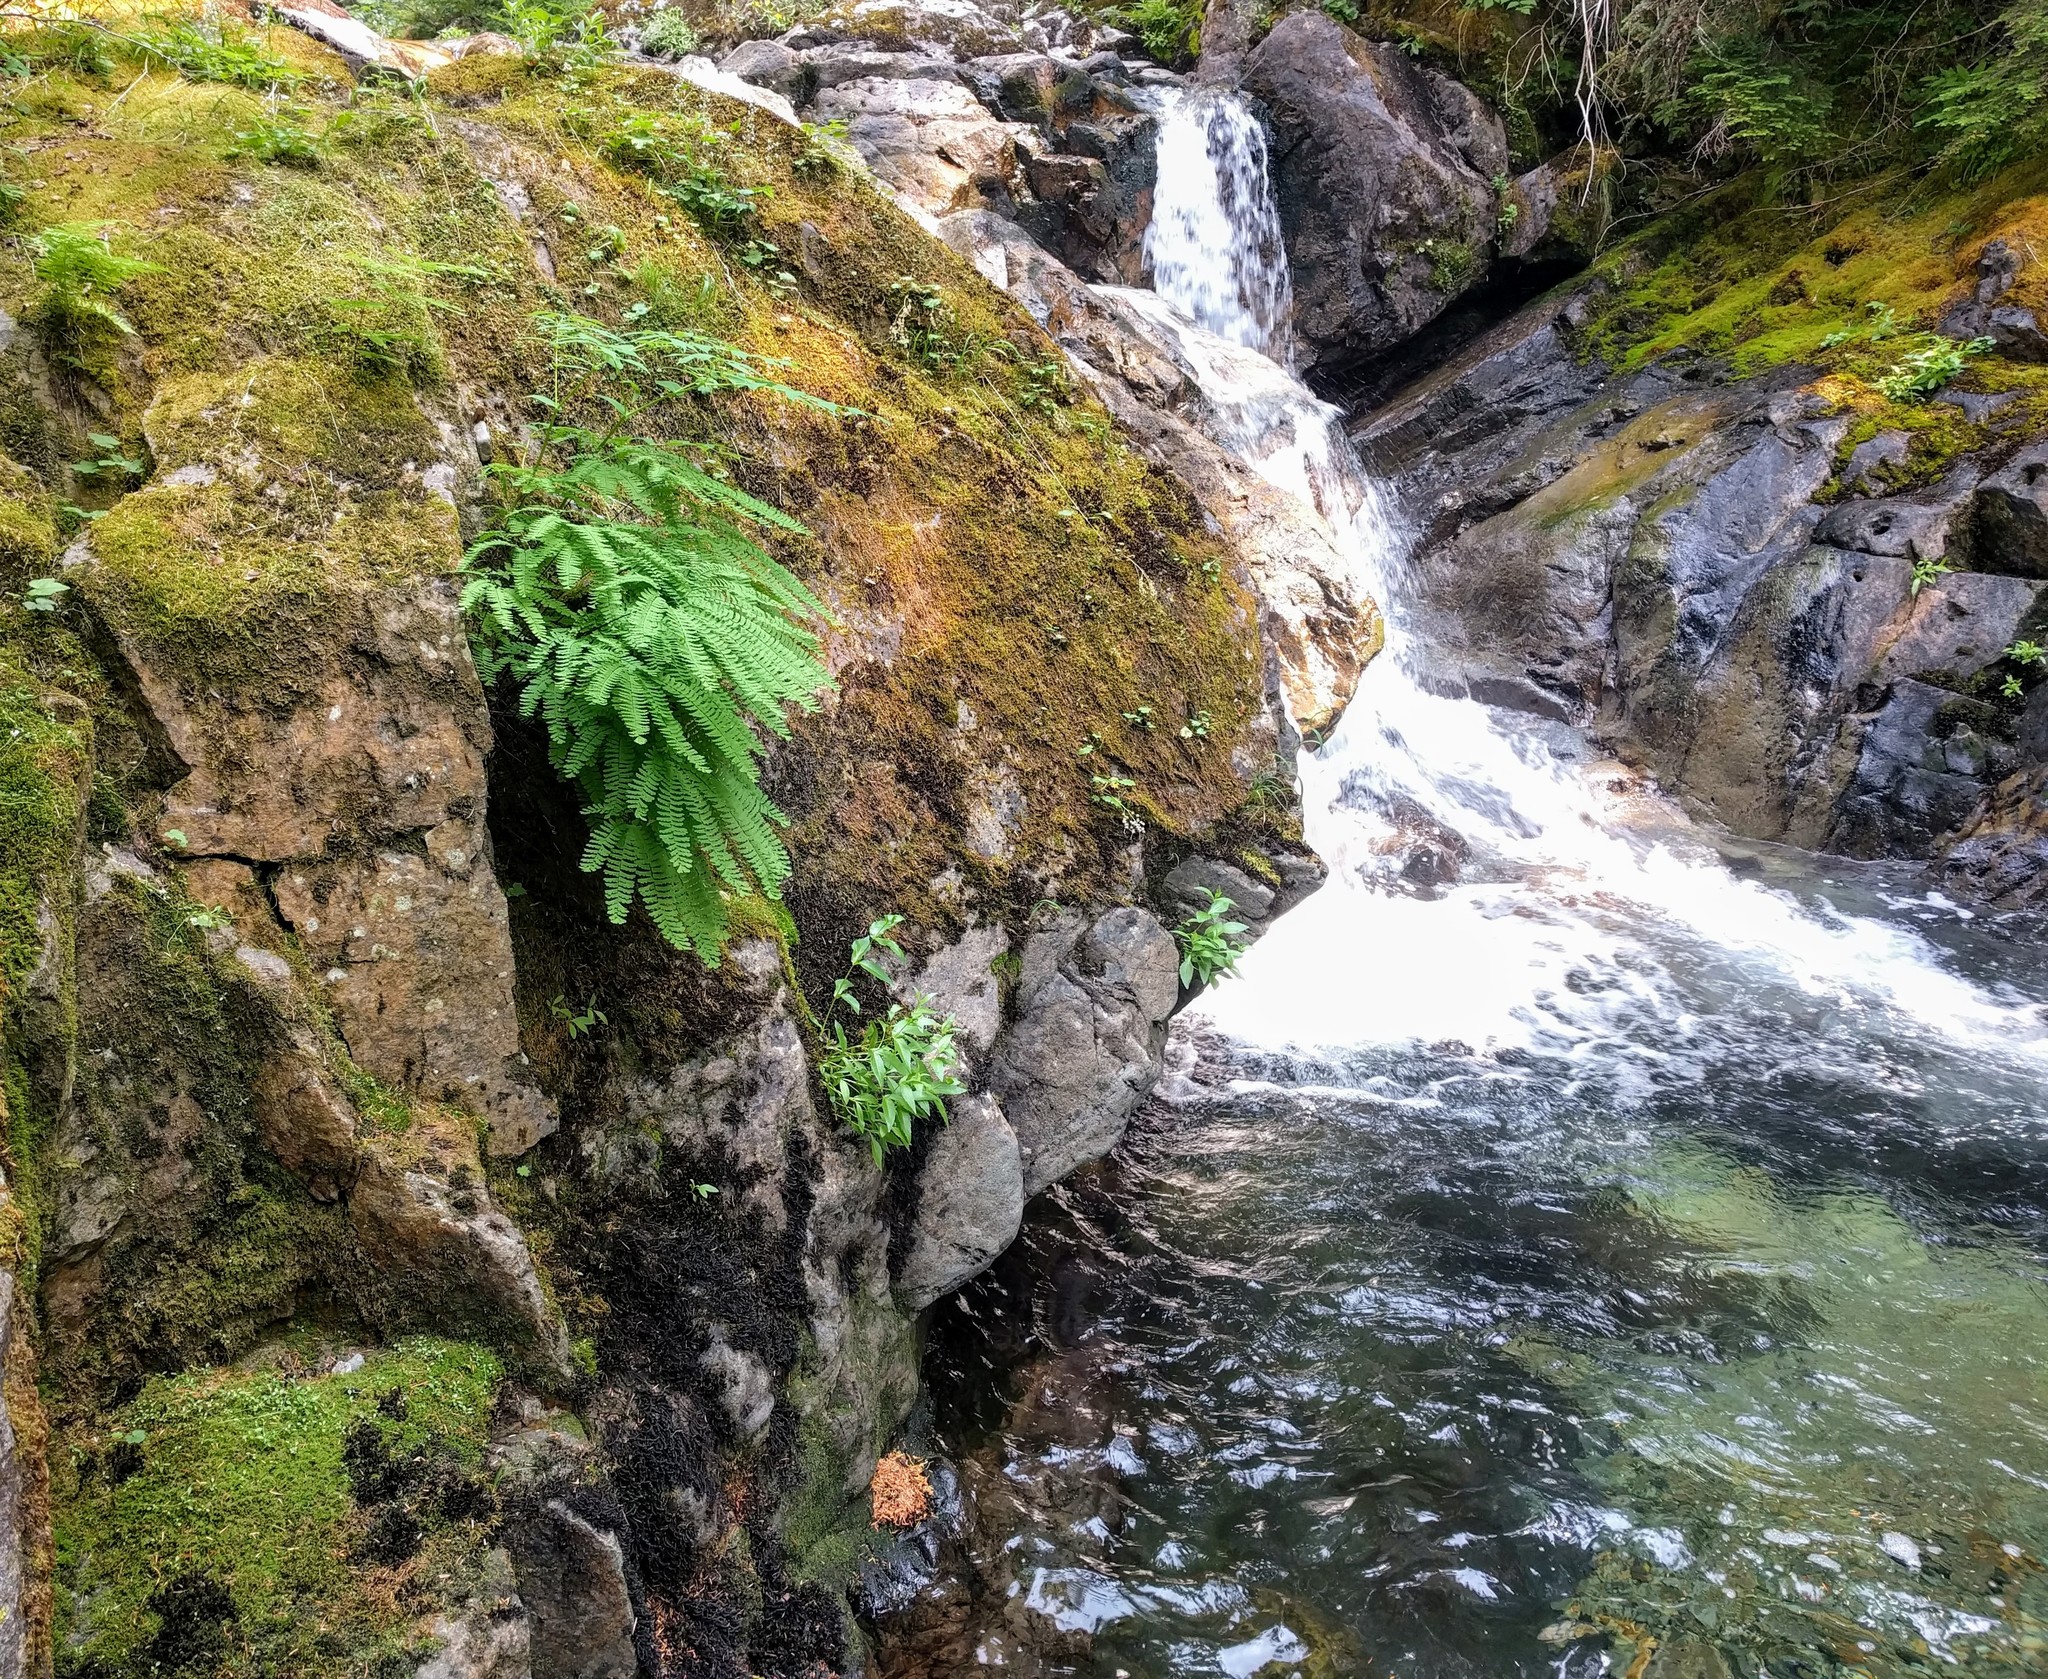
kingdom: Plantae
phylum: Tracheophyta
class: Polypodiopsida
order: Polypodiales
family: Pteridaceae
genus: Adiantum
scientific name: Adiantum aleuticum
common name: Aleutian maidenhair fern
